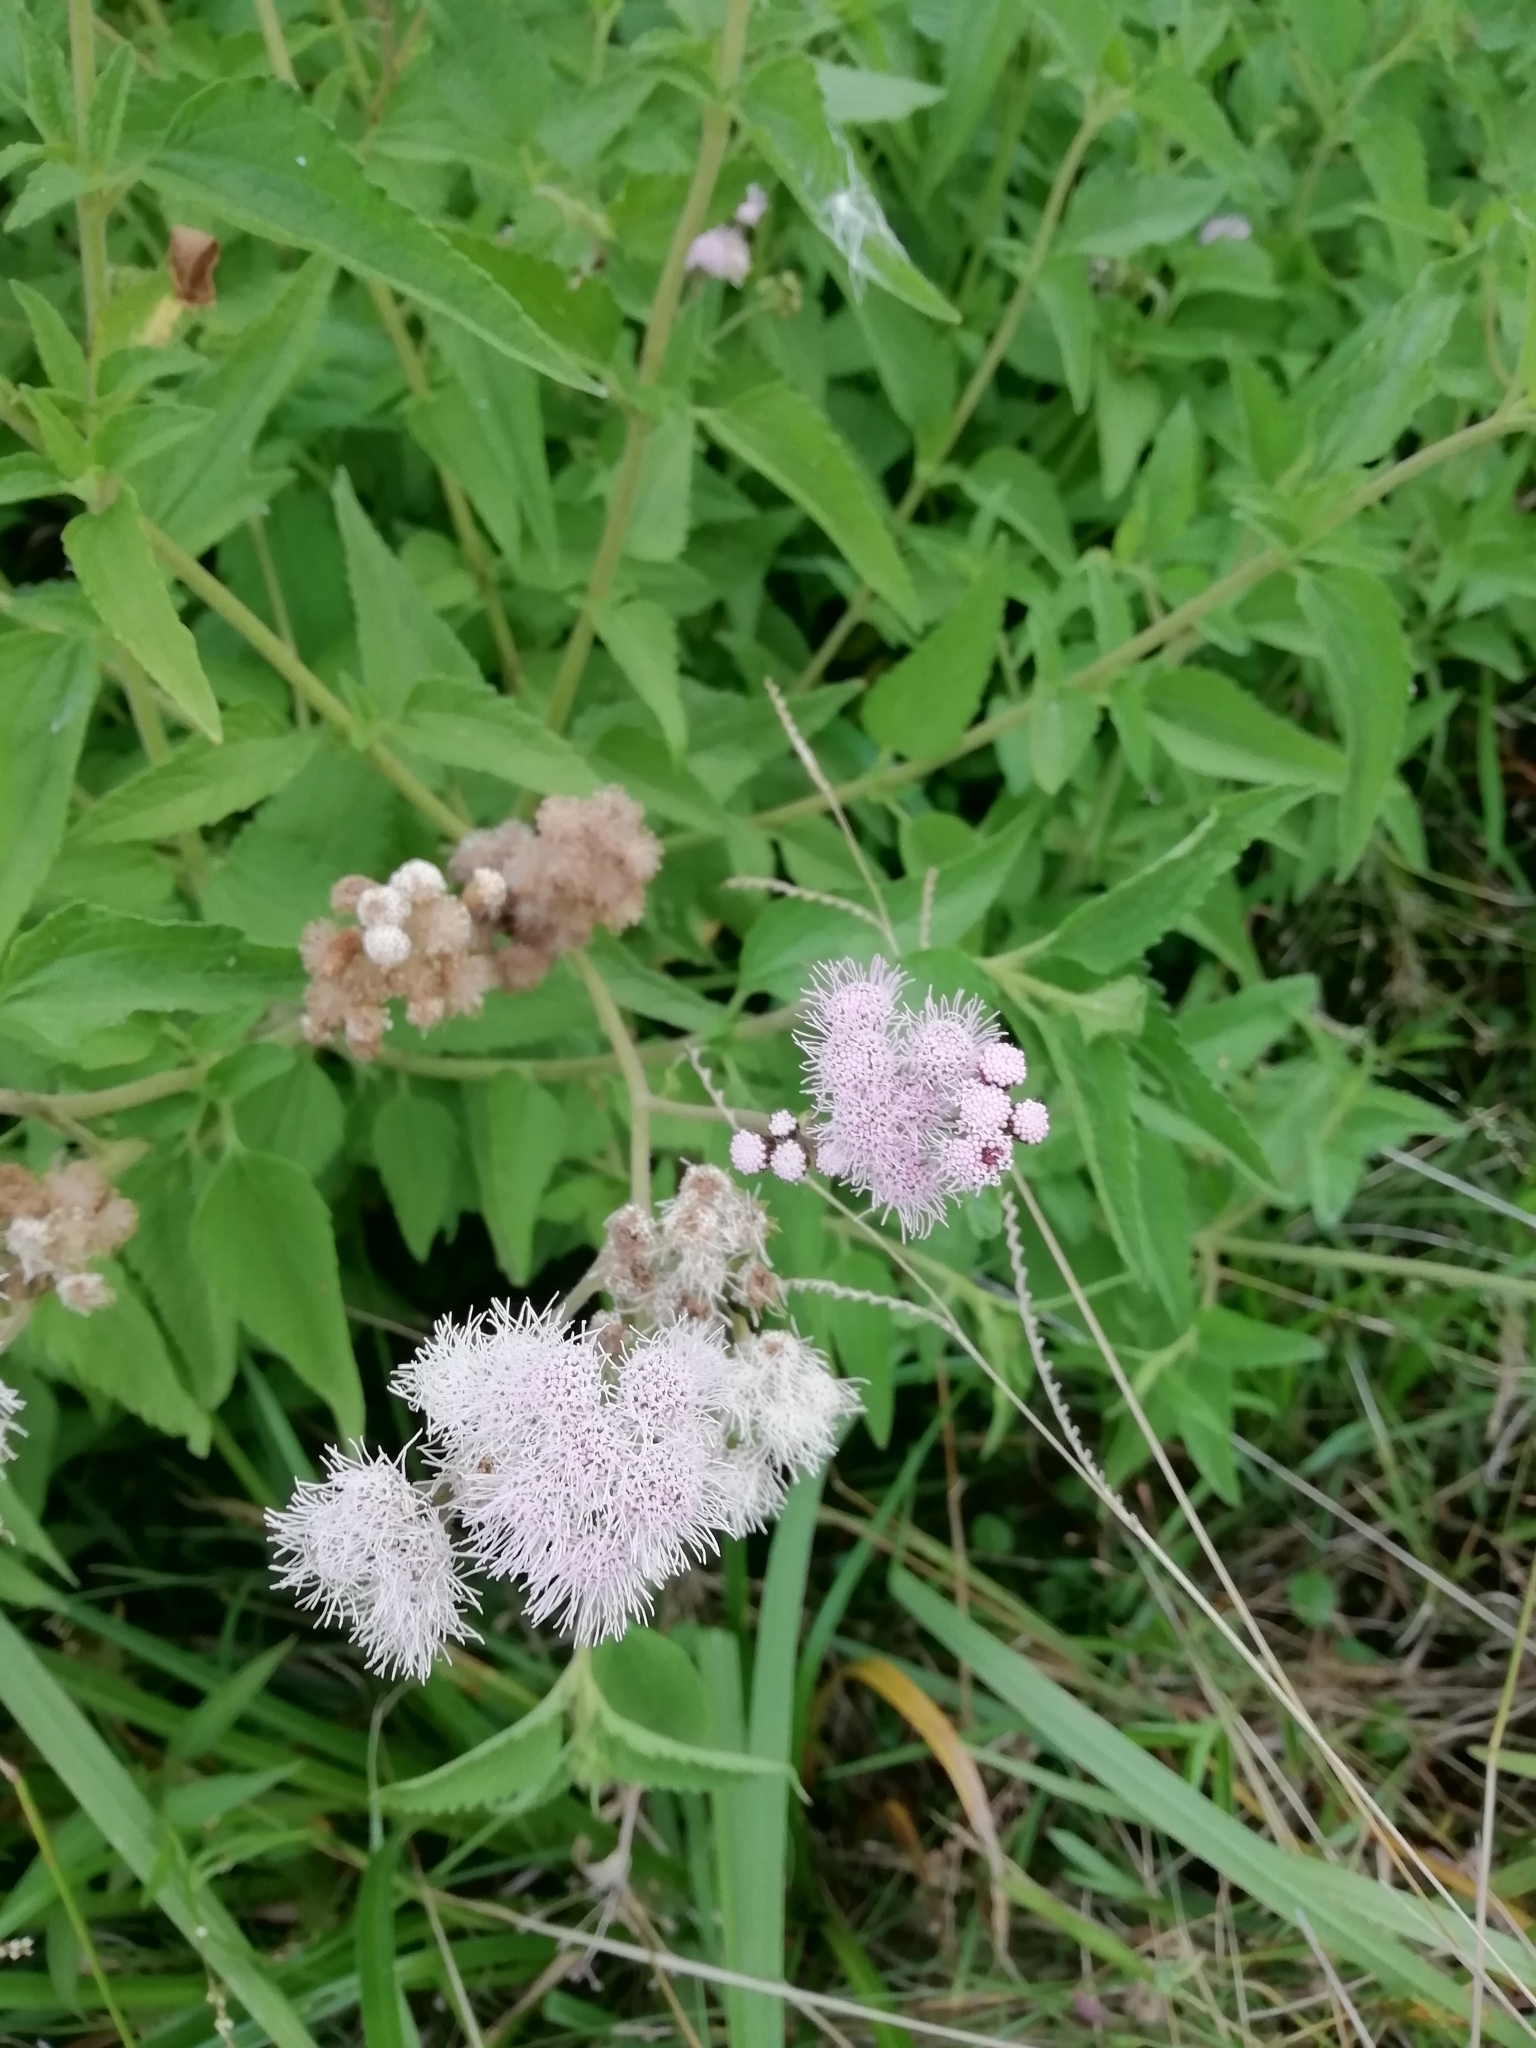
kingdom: Plantae
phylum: Tracheophyta
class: Magnoliopsida
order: Asterales
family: Asteraceae
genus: Barrosoa
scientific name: Barrosoa candolleana
